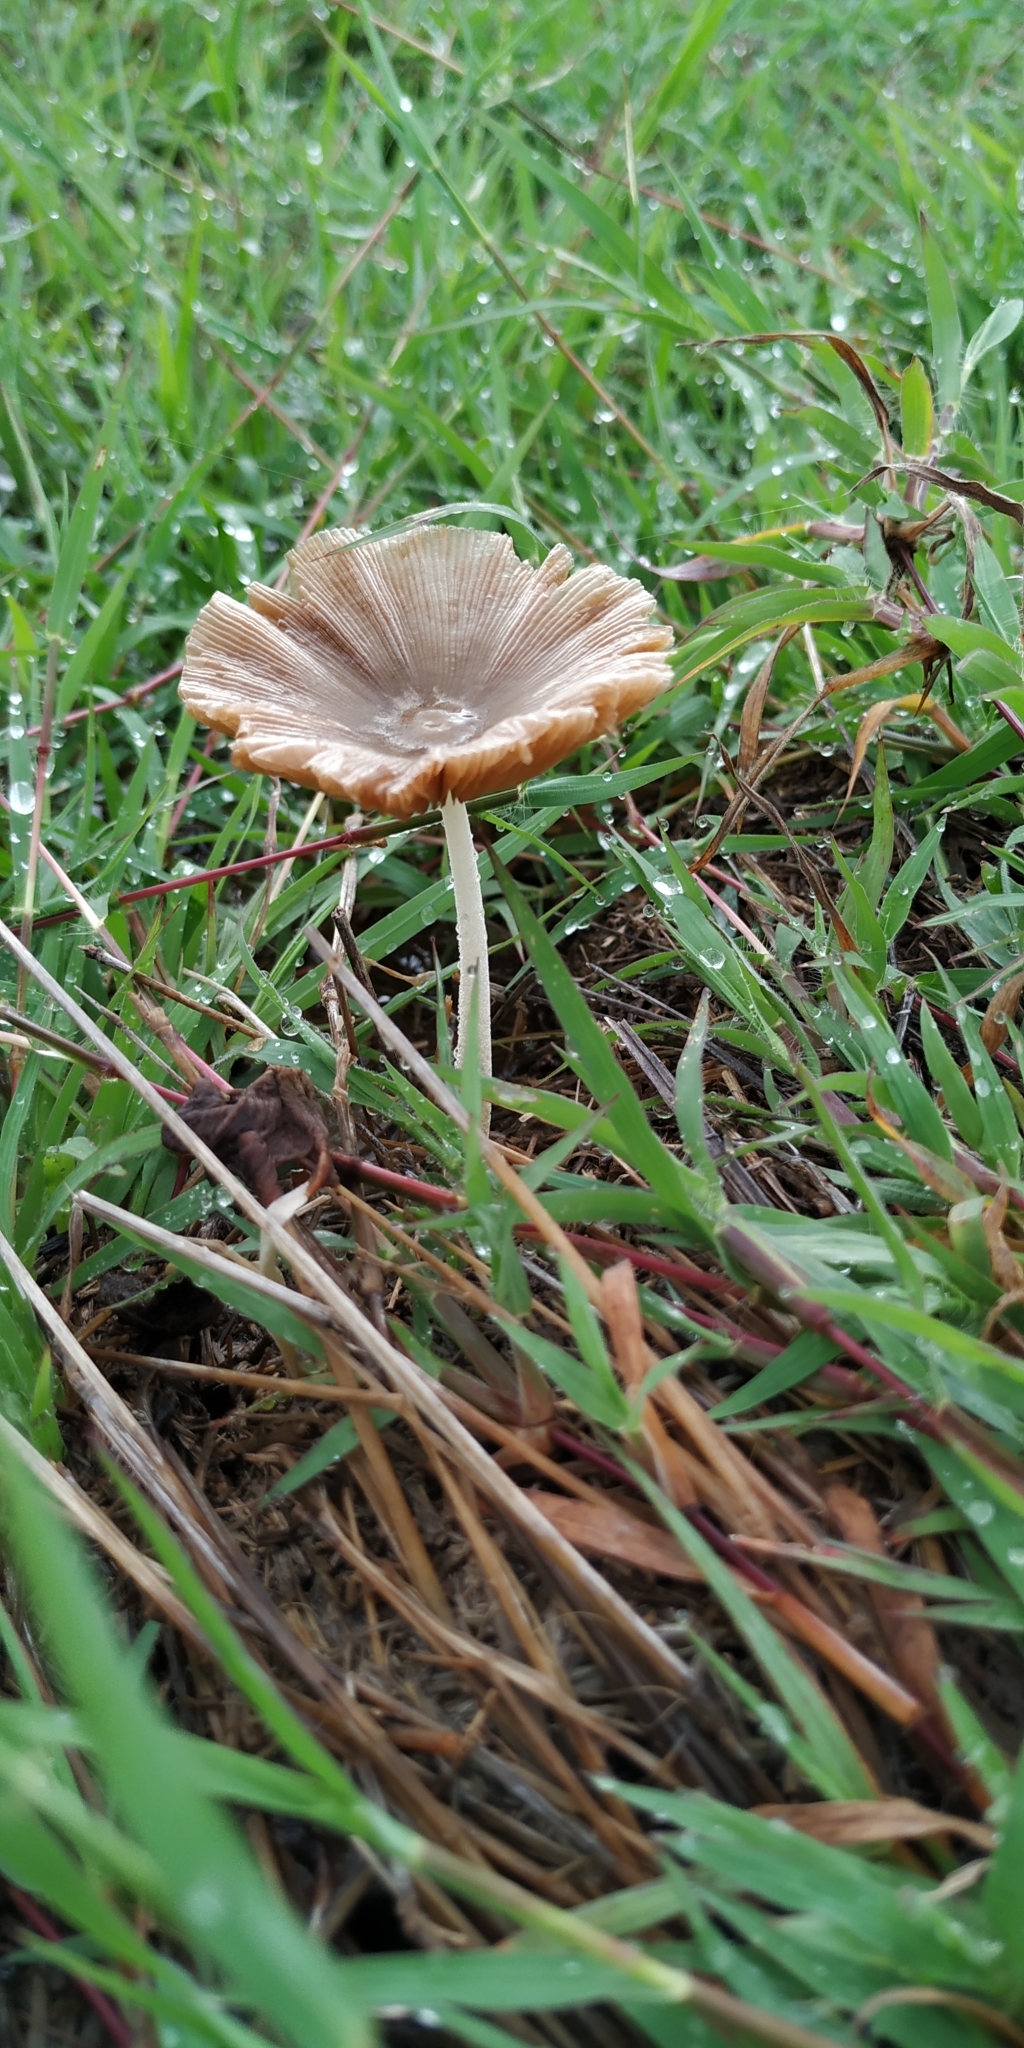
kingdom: Fungi
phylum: Basidiomycota
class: Agaricomycetes
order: Agaricales
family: Bolbitiaceae
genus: Bolbitius
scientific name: Bolbitius coprophilus
